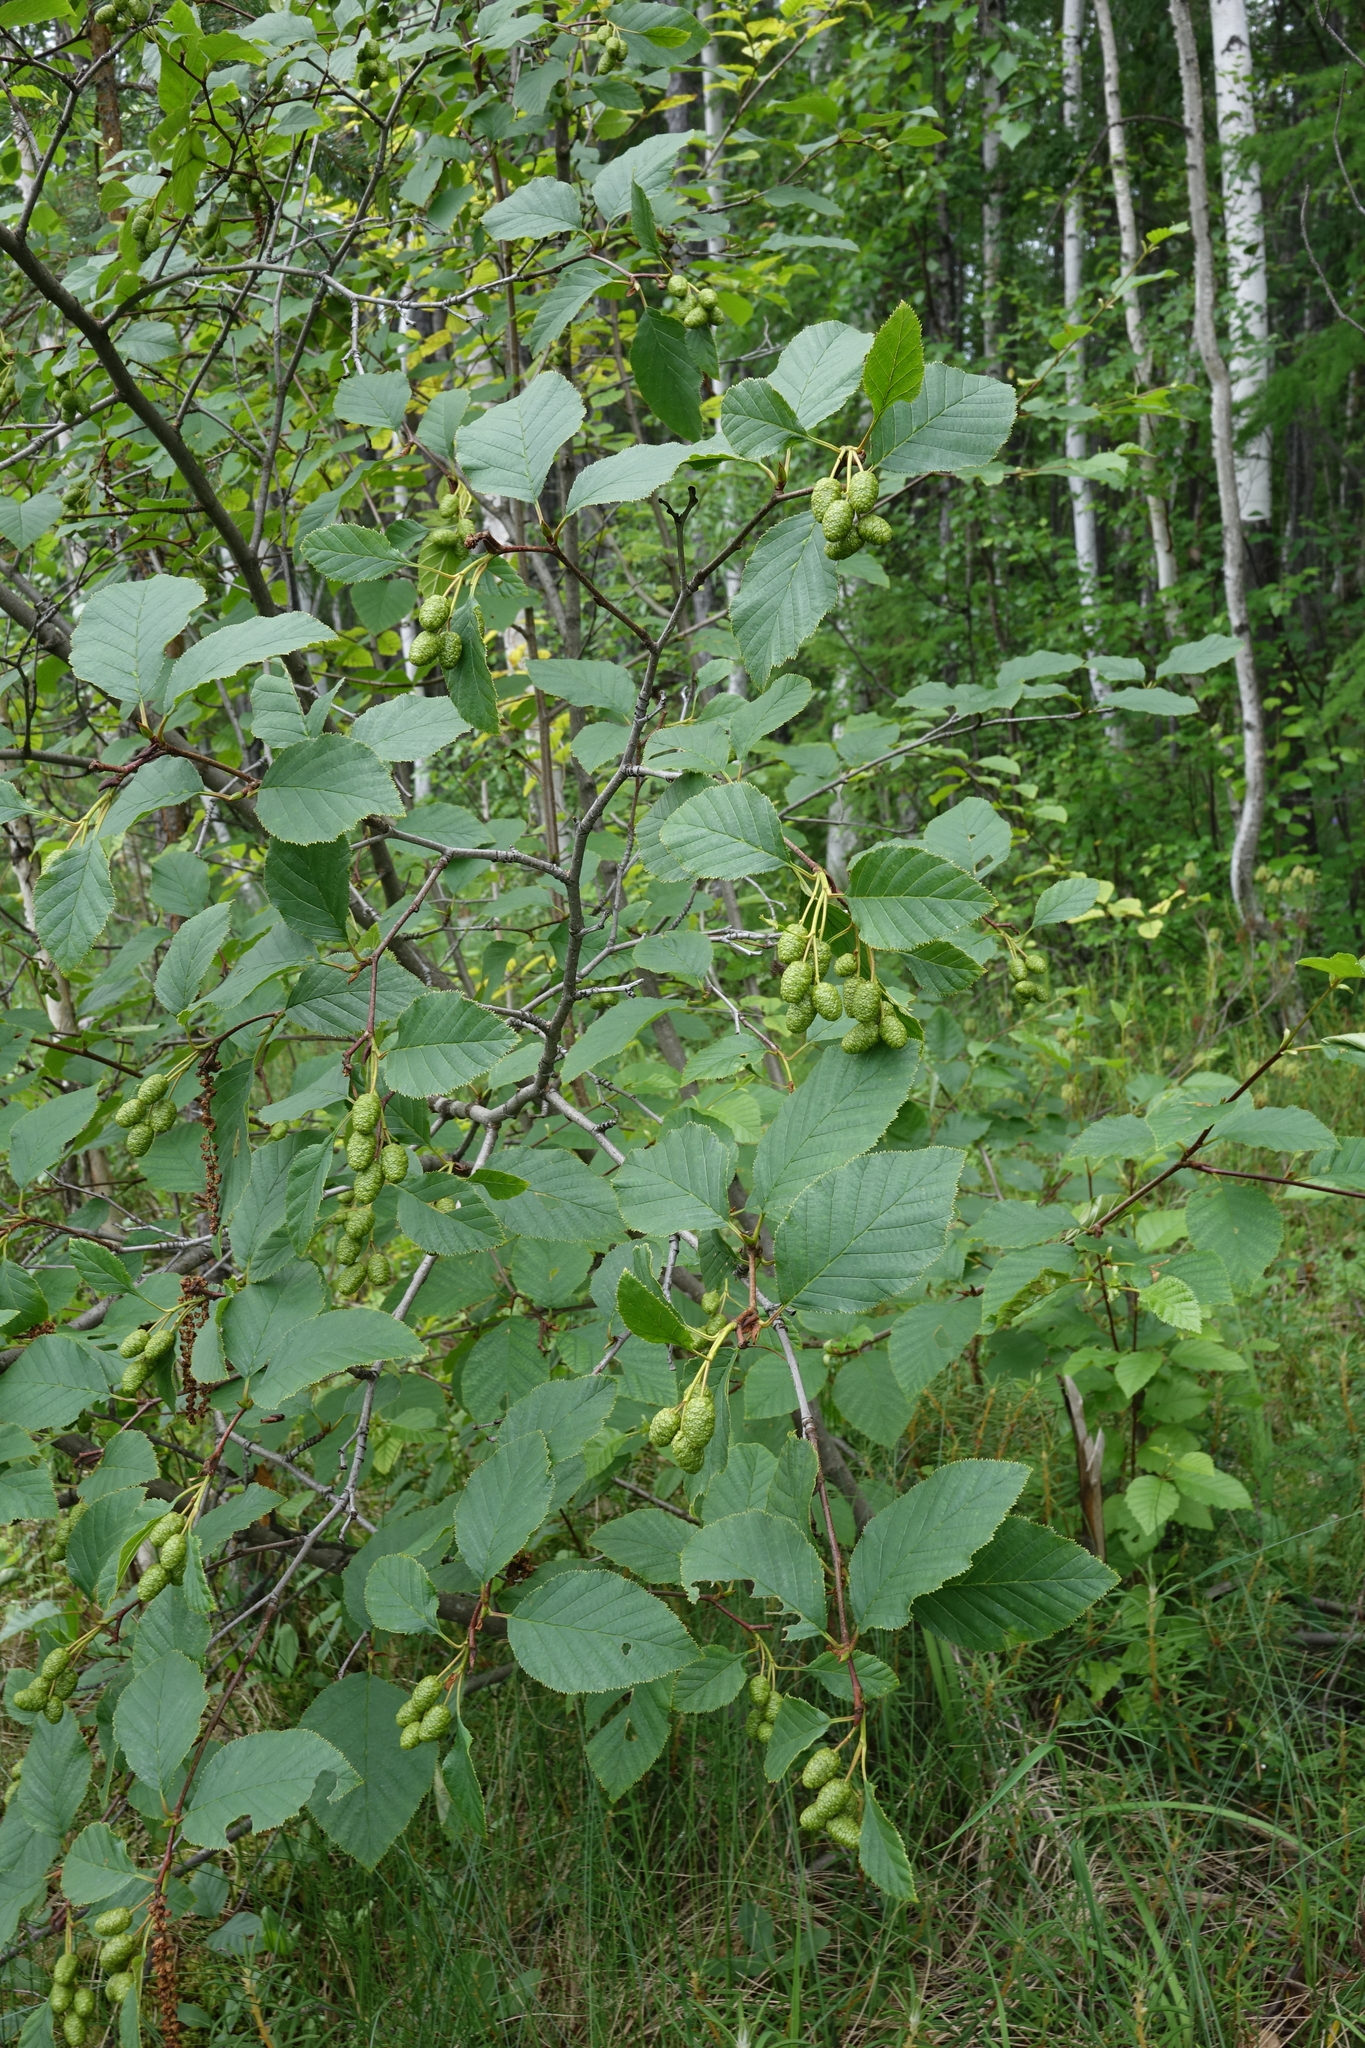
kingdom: Plantae
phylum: Tracheophyta
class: Magnoliopsida
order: Fagales
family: Betulaceae
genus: Alnus
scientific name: Alnus alnobetula
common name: Green alder
